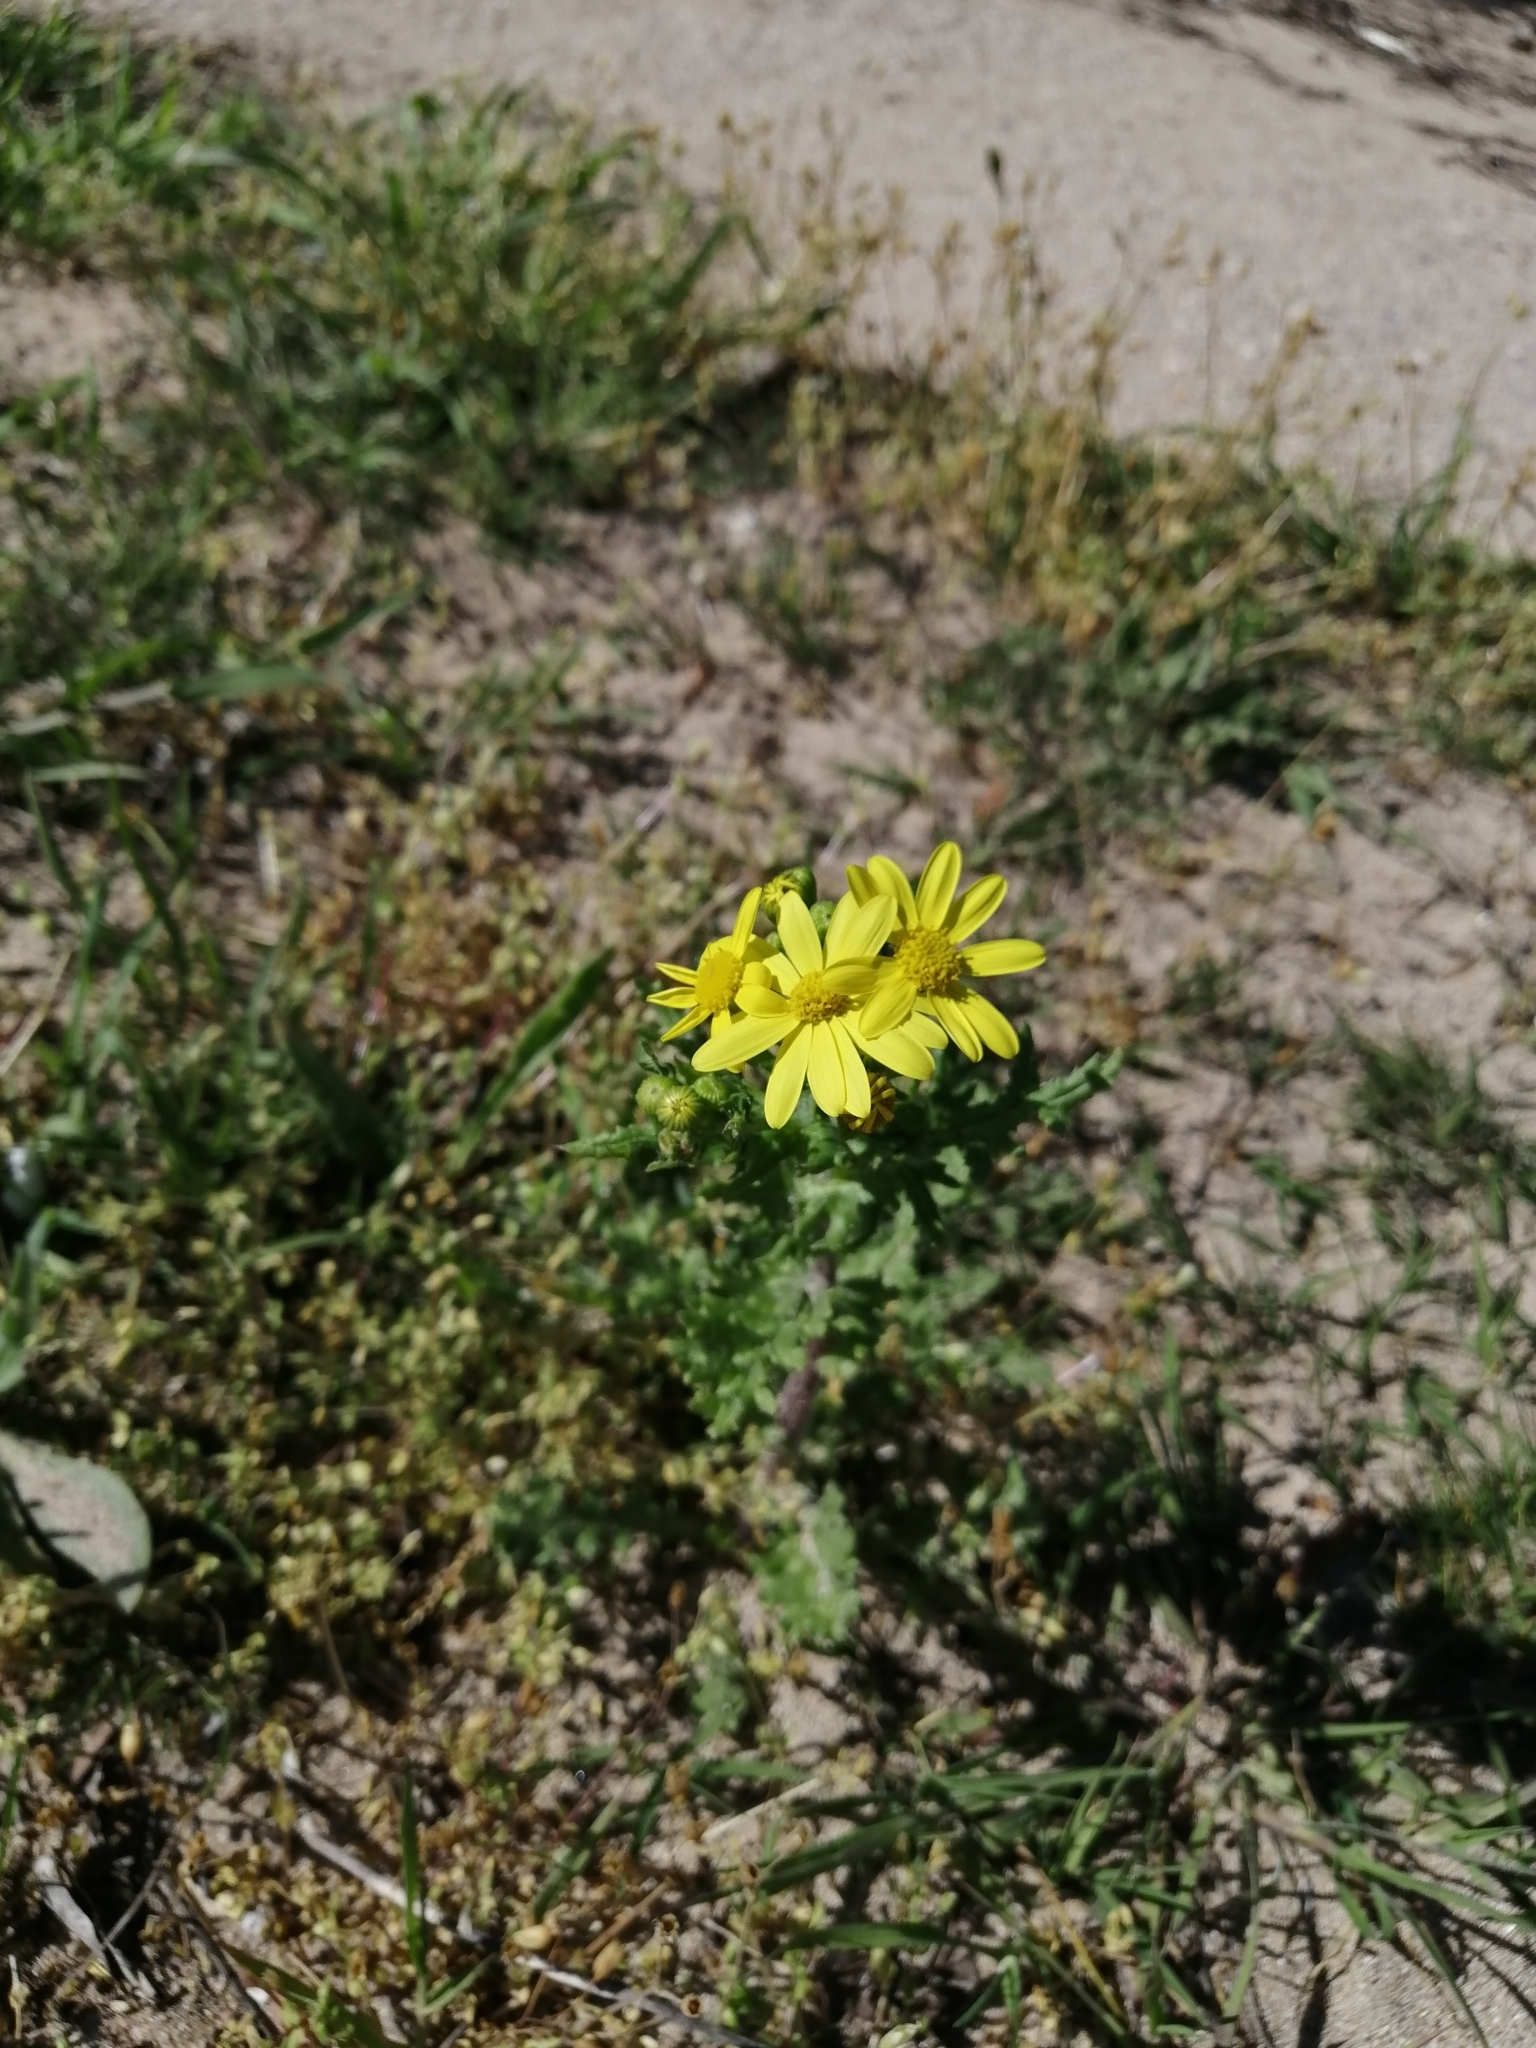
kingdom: Plantae
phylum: Tracheophyta
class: Magnoliopsida
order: Asterales
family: Asteraceae
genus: Senecio
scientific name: Senecio vernalis
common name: Eastern groundsel
